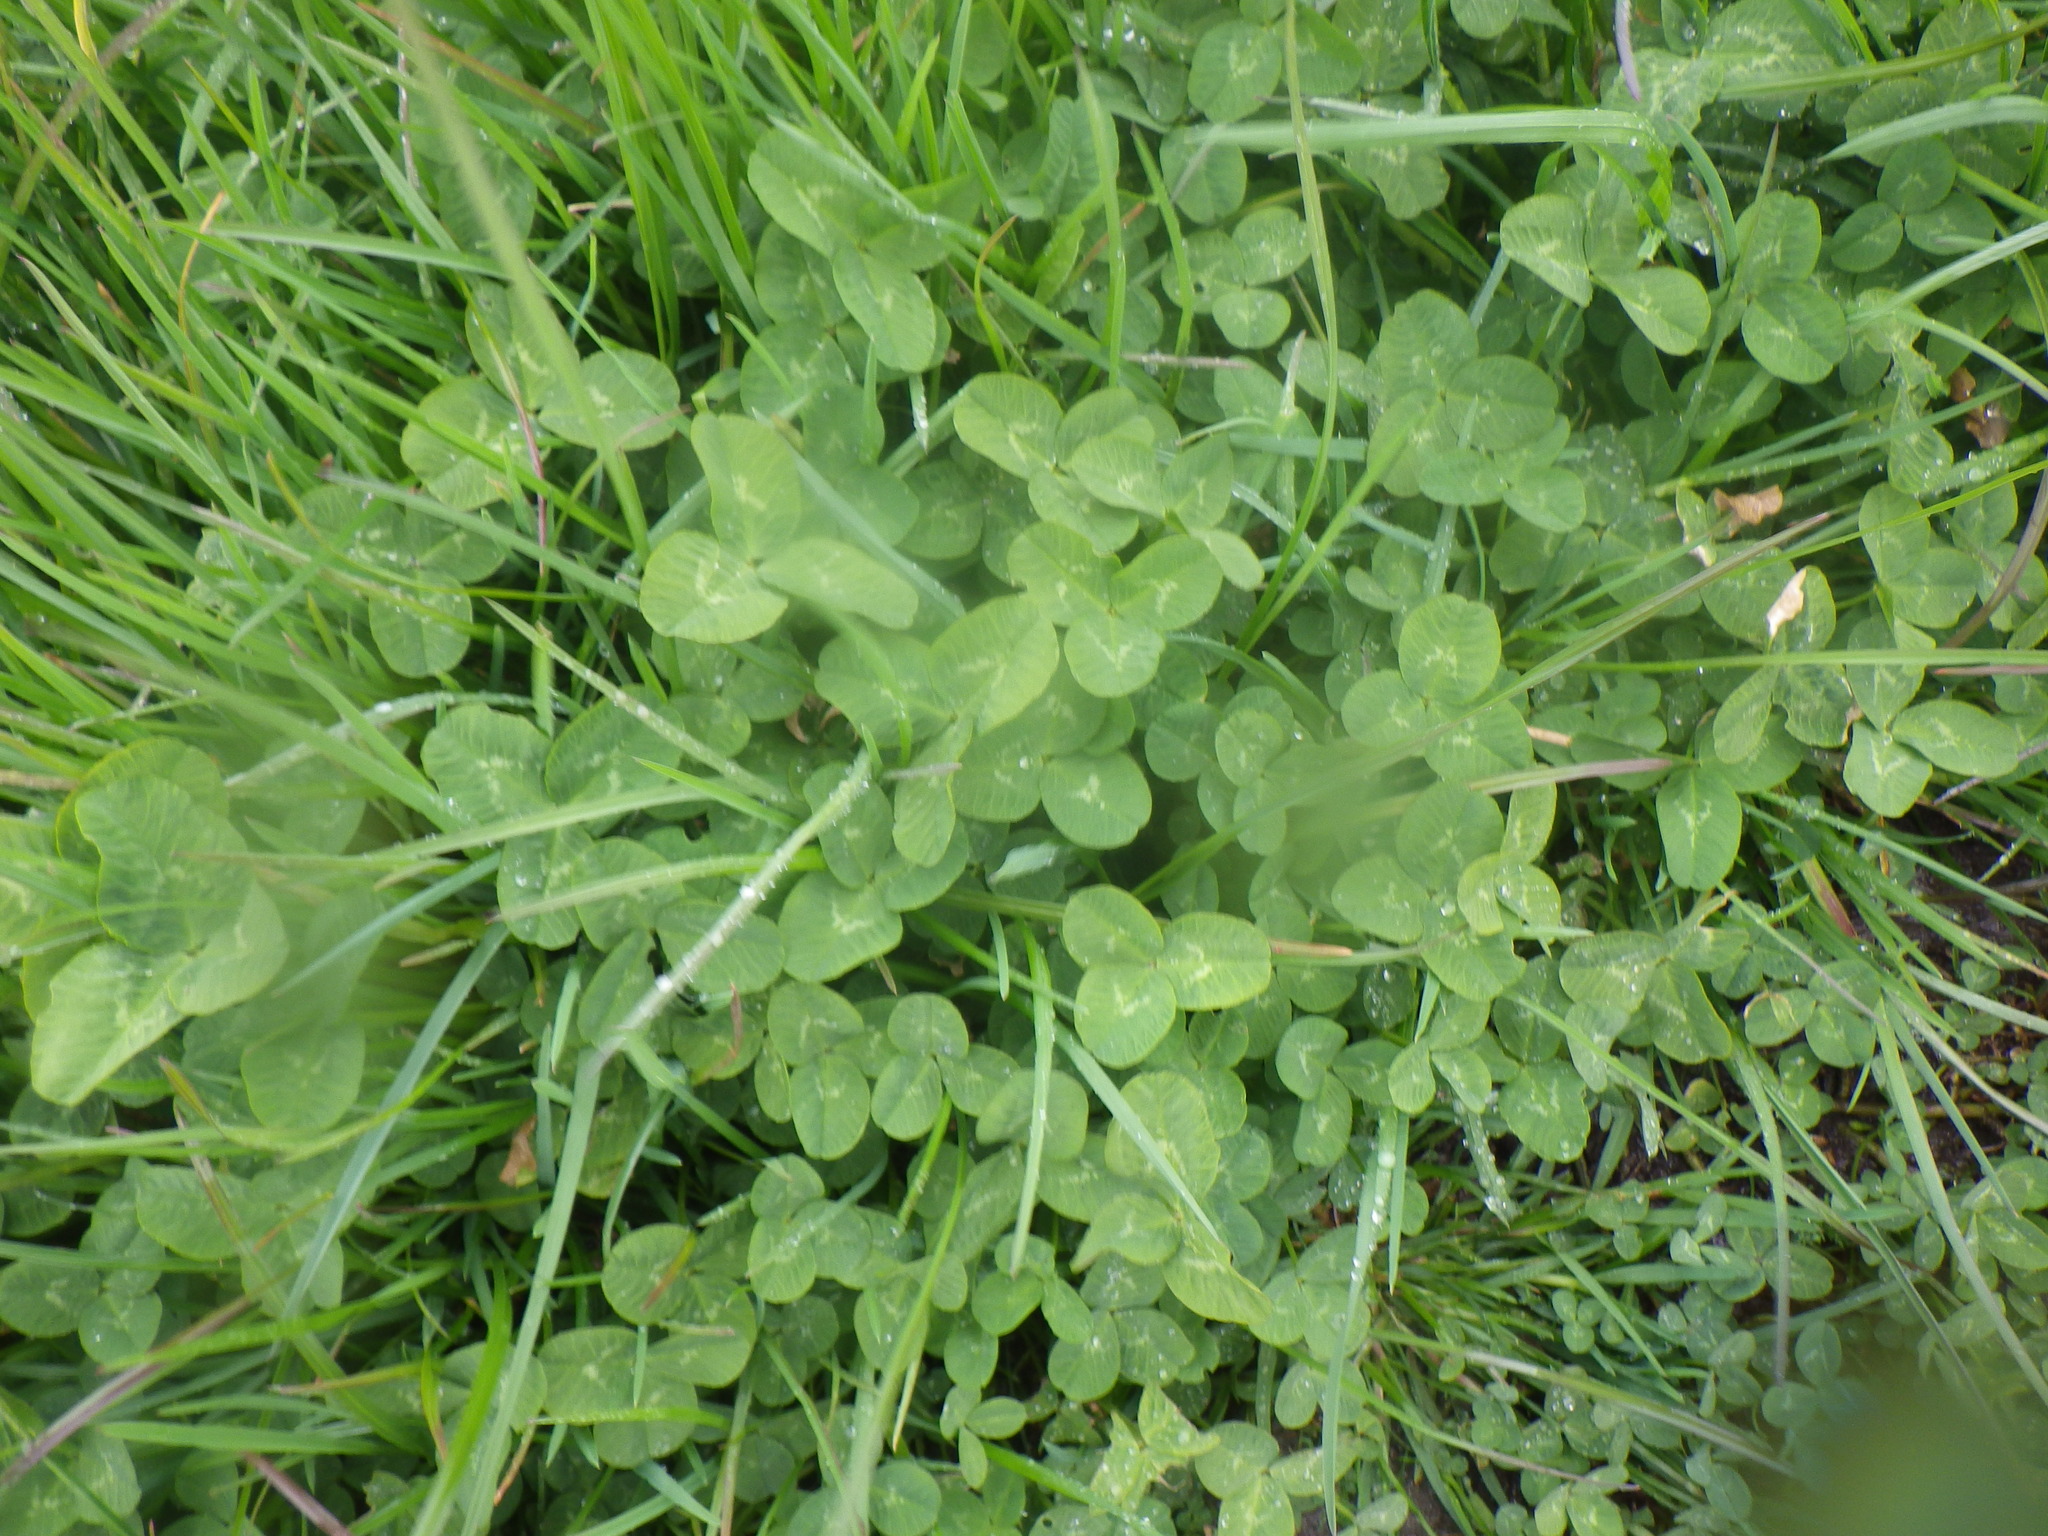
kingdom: Plantae
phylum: Tracheophyta
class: Magnoliopsida
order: Fabales
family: Fabaceae
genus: Trifolium
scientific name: Trifolium repens
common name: White clover
